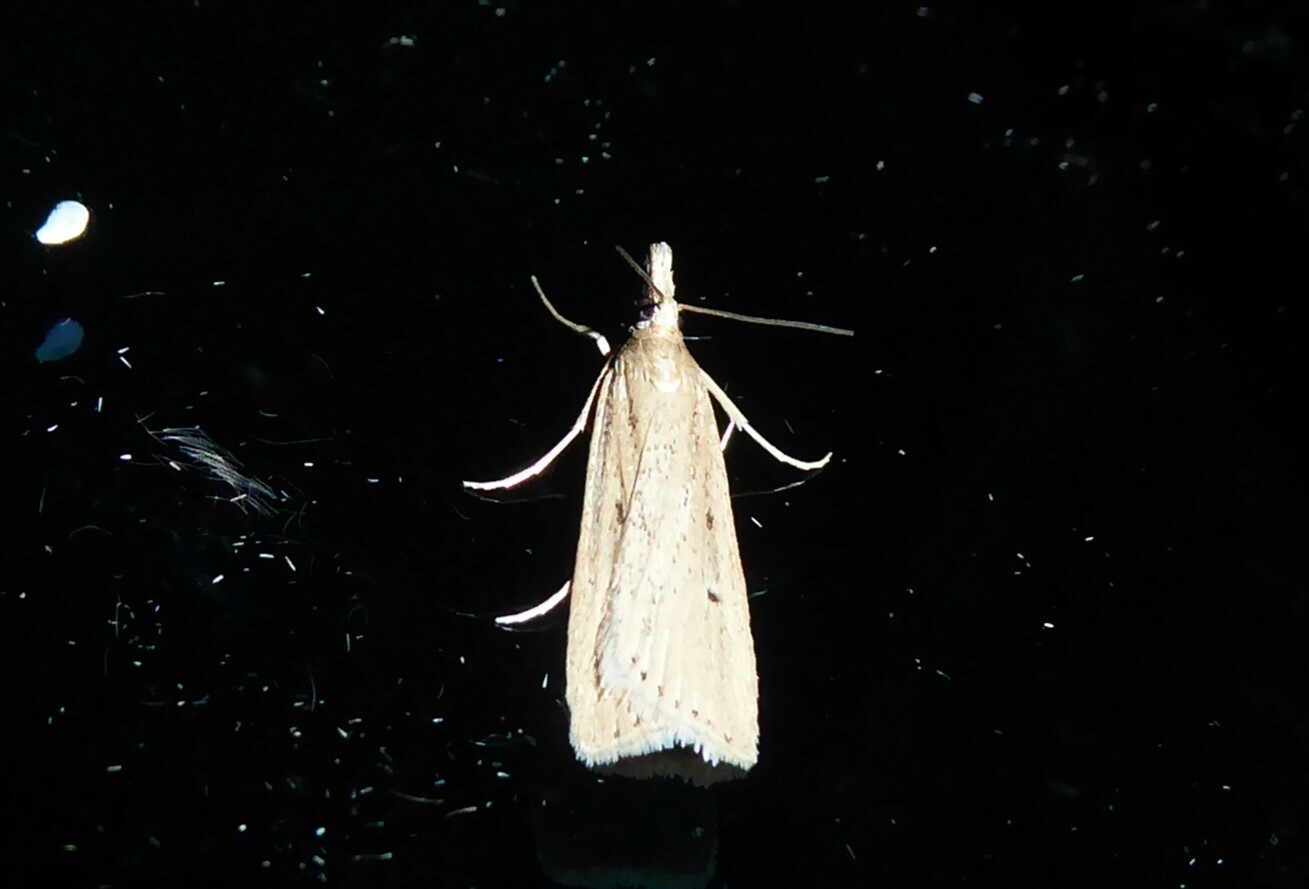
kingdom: Animalia
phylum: Arthropoda
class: Insecta
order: Lepidoptera
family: Crambidae
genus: Eudonia
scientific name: Eudonia sabulosella
